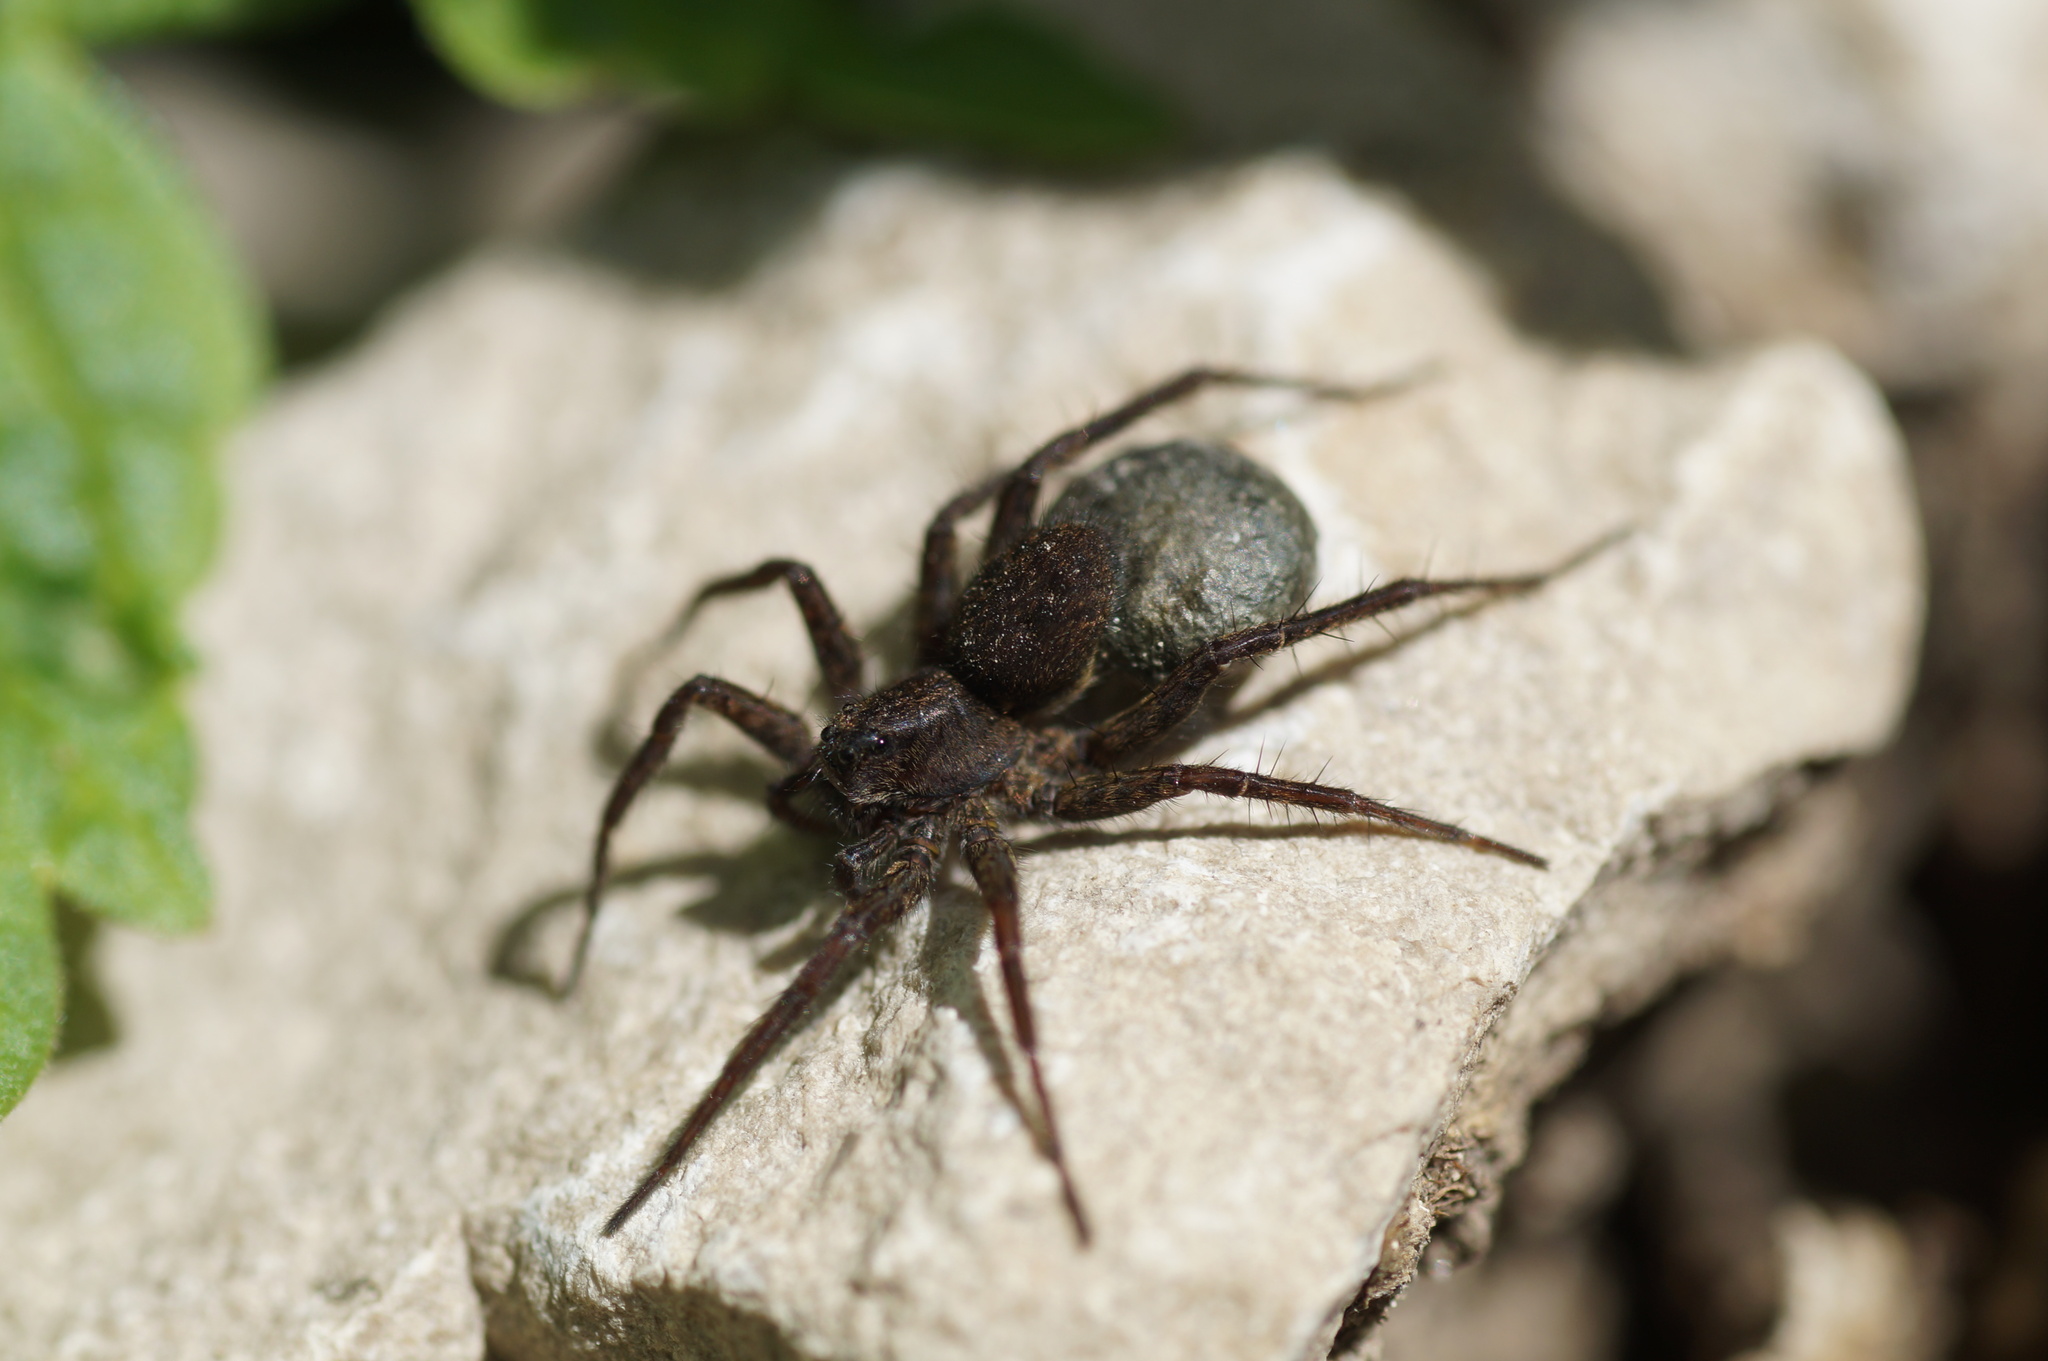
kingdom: Animalia
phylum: Arthropoda
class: Arachnida
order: Araneae
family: Lycosidae
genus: Pardosa
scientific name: Pardosa
